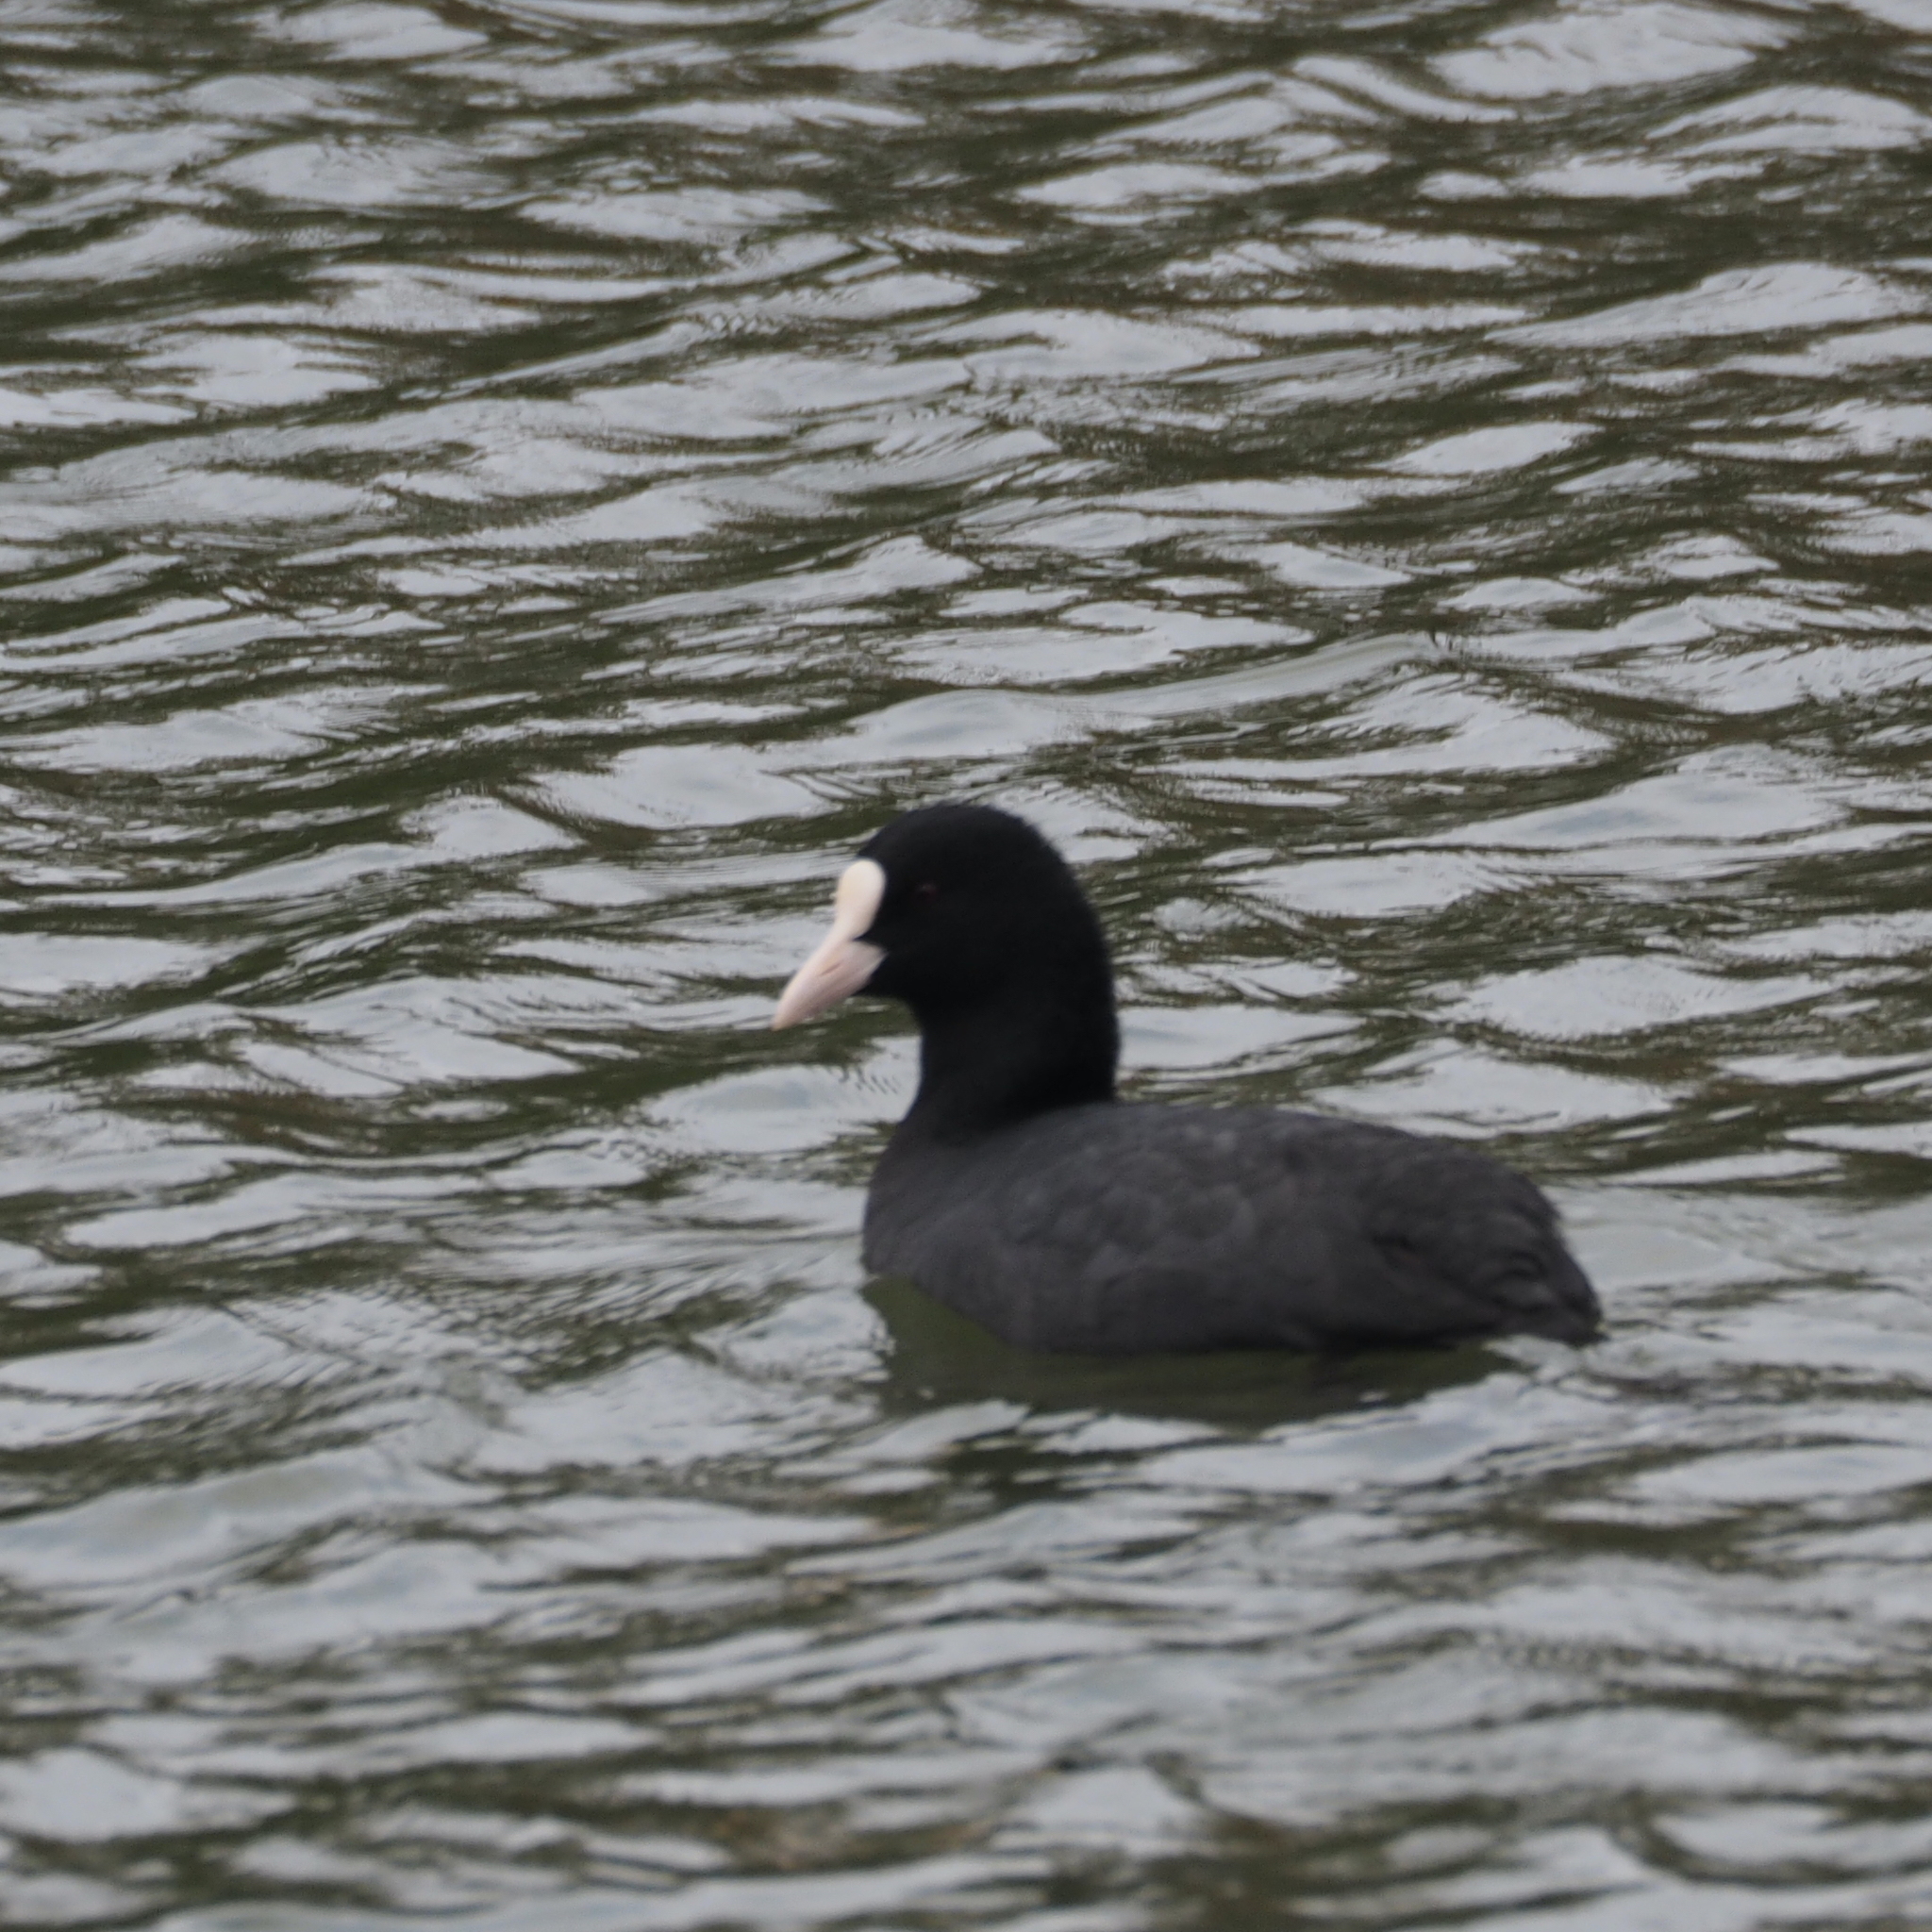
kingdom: Animalia
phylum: Chordata
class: Aves
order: Gruiformes
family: Rallidae
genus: Fulica
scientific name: Fulica atra
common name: Eurasian coot
